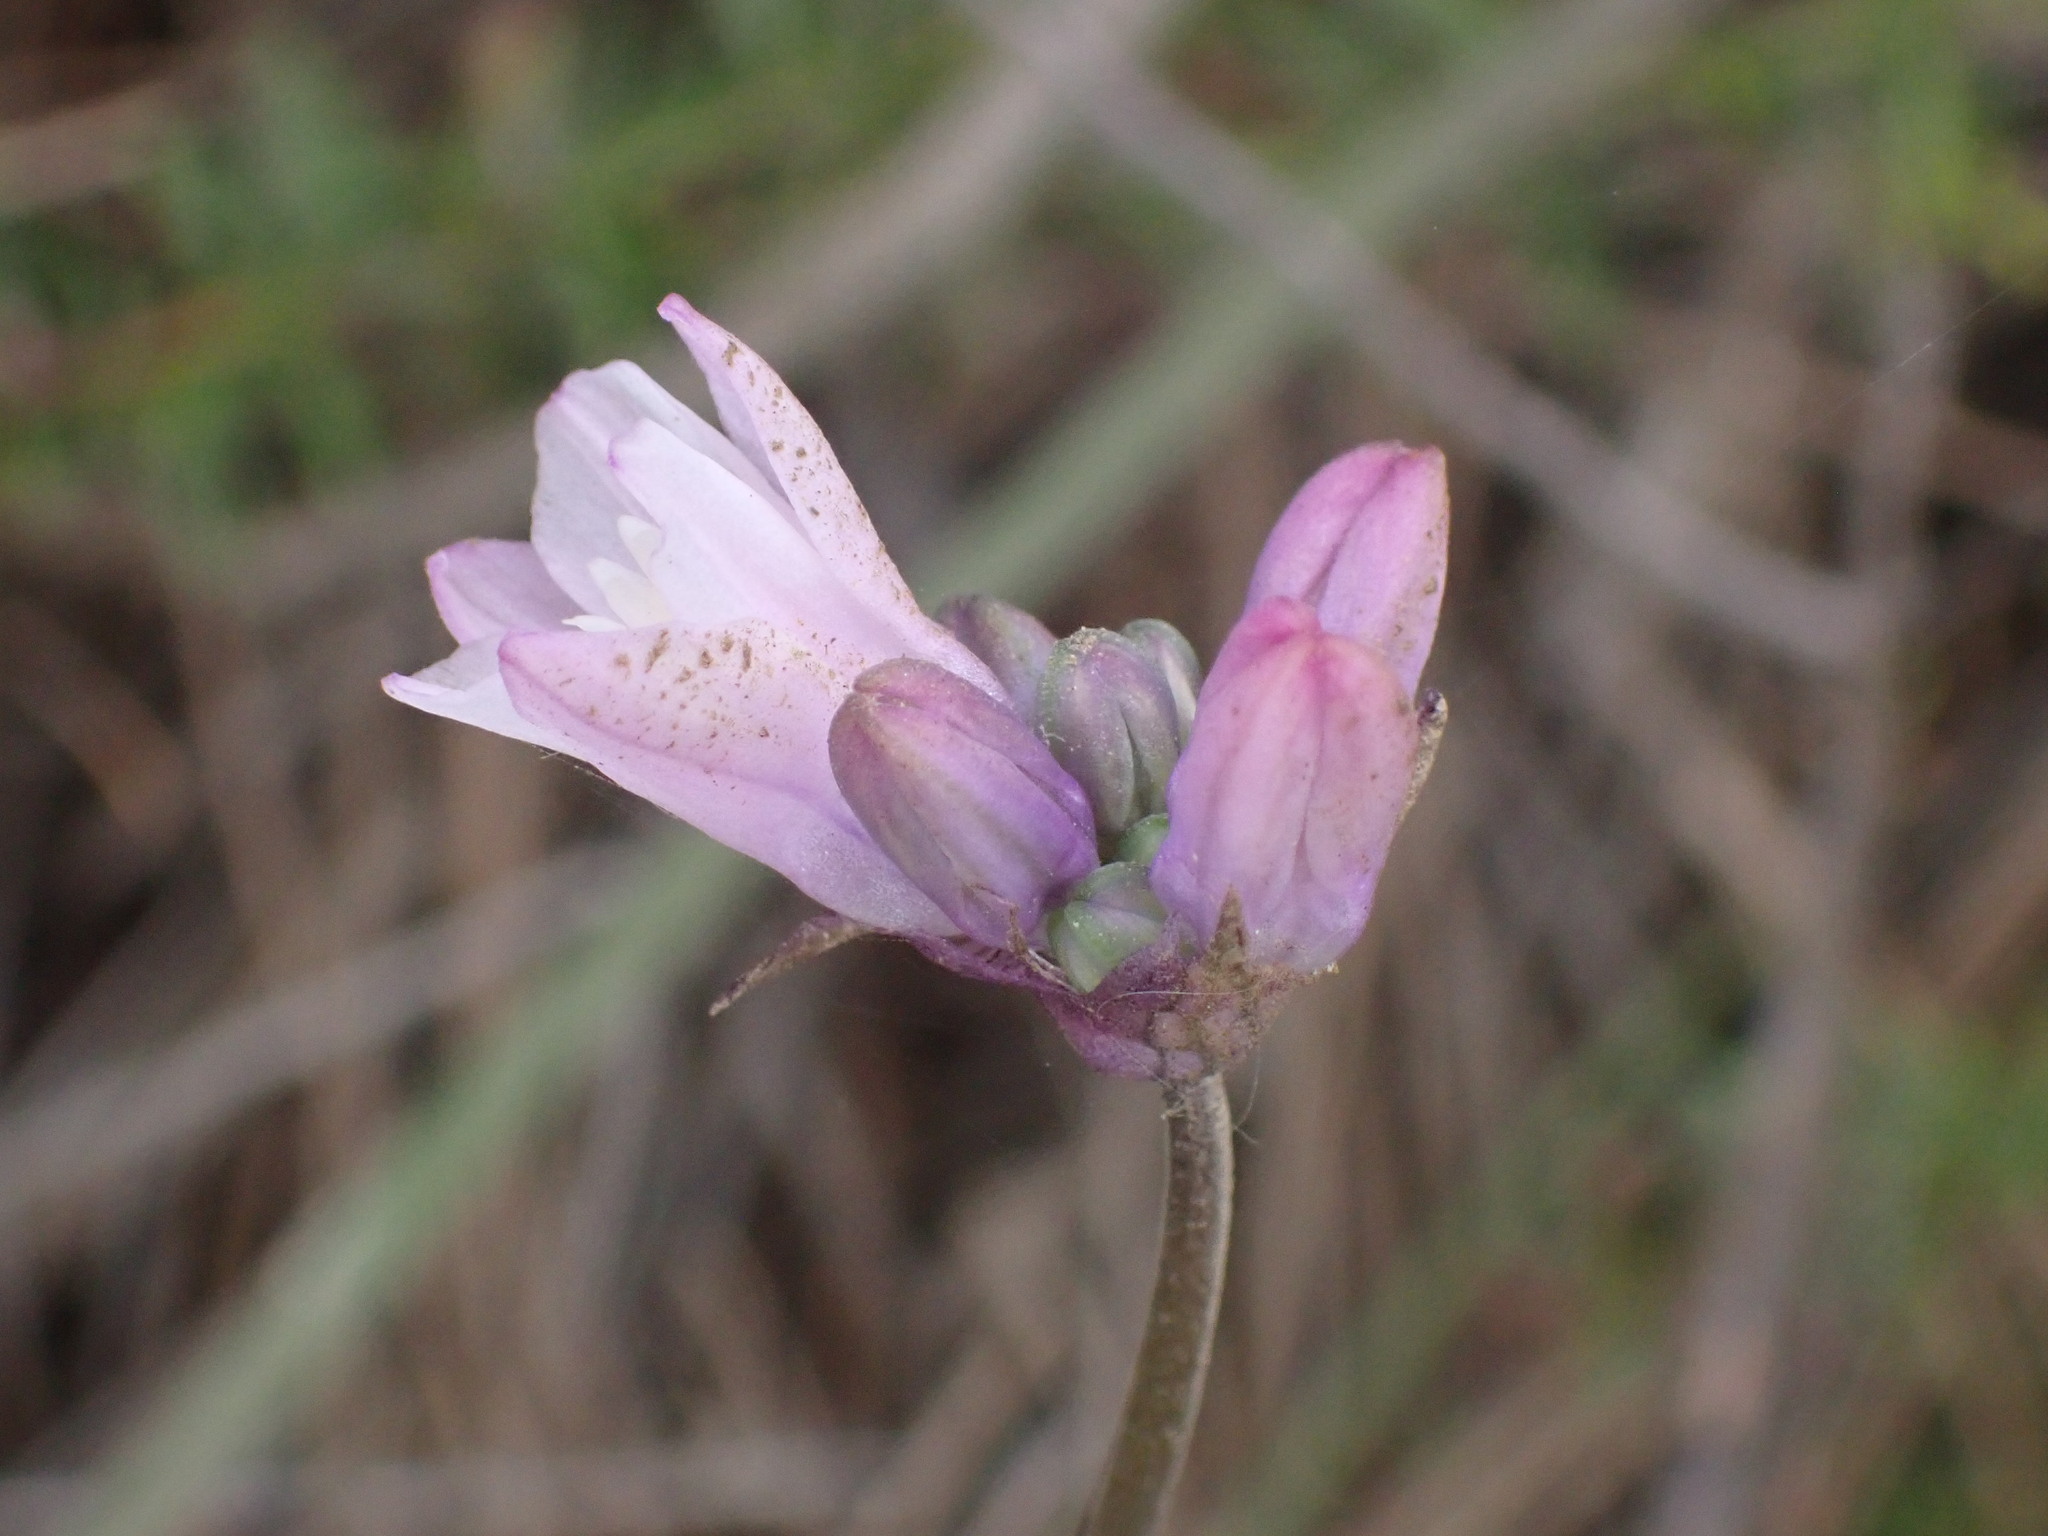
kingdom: Plantae
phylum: Tracheophyta
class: Liliopsida
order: Asparagales
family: Asparagaceae
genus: Dipterostemon
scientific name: Dipterostemon capitatus
